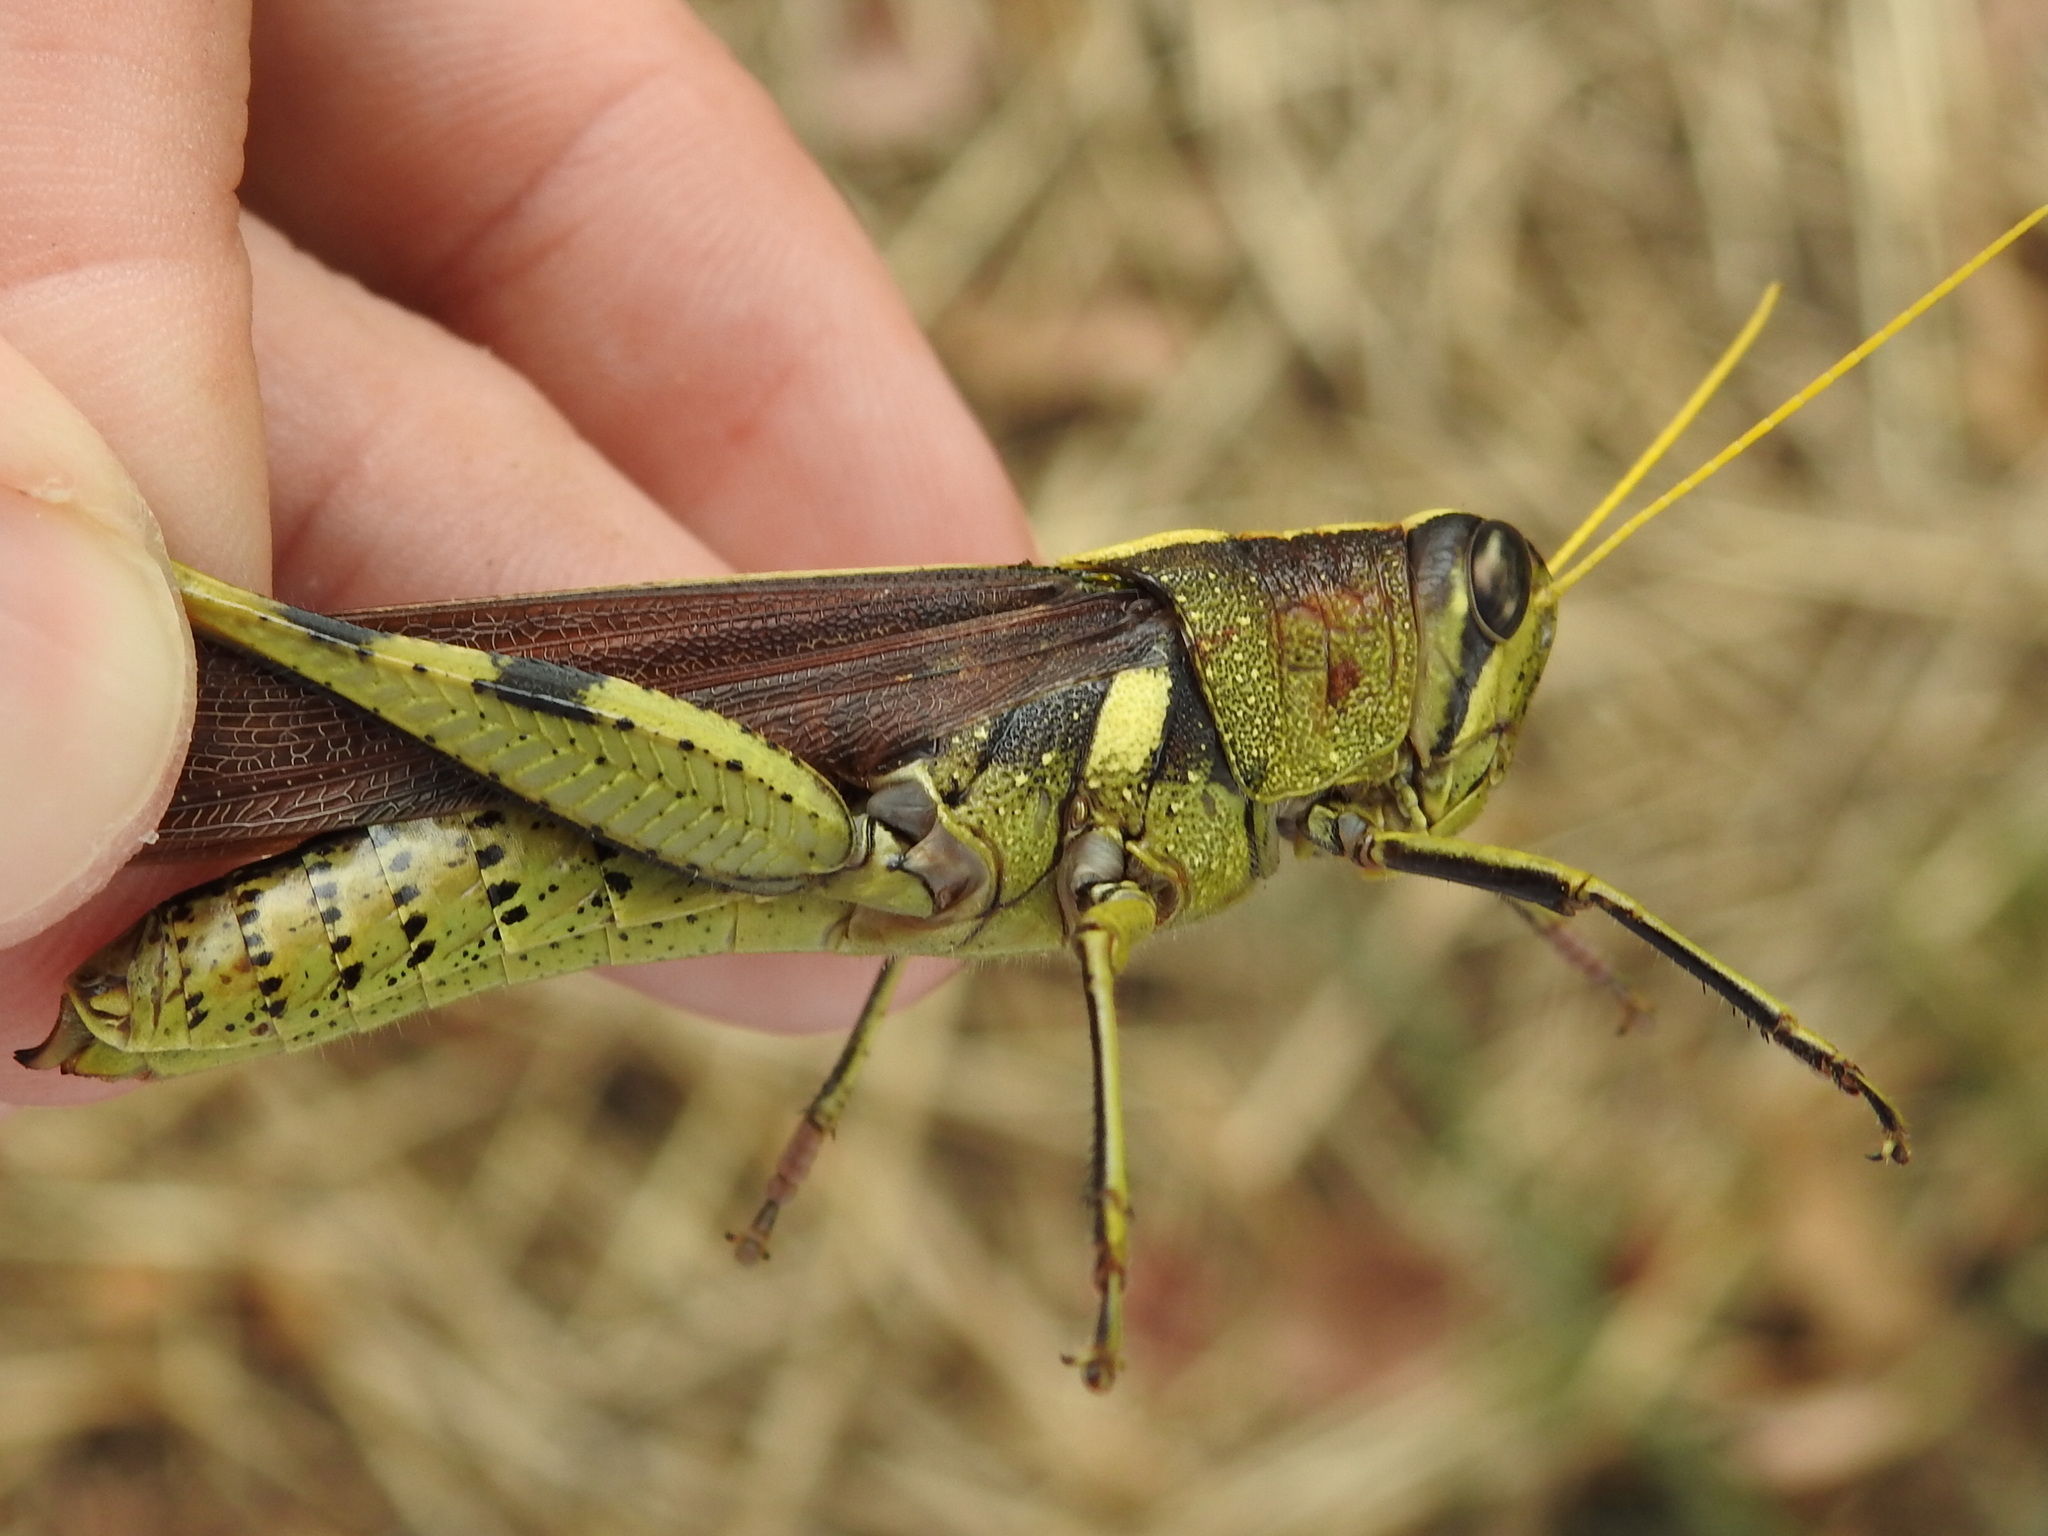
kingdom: Animalia
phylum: Arthropoda
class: Insecta
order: Orthoptera
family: Acrididae
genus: Schistocerca
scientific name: Schistocerca obscura
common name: Obscure bird grasshopper
